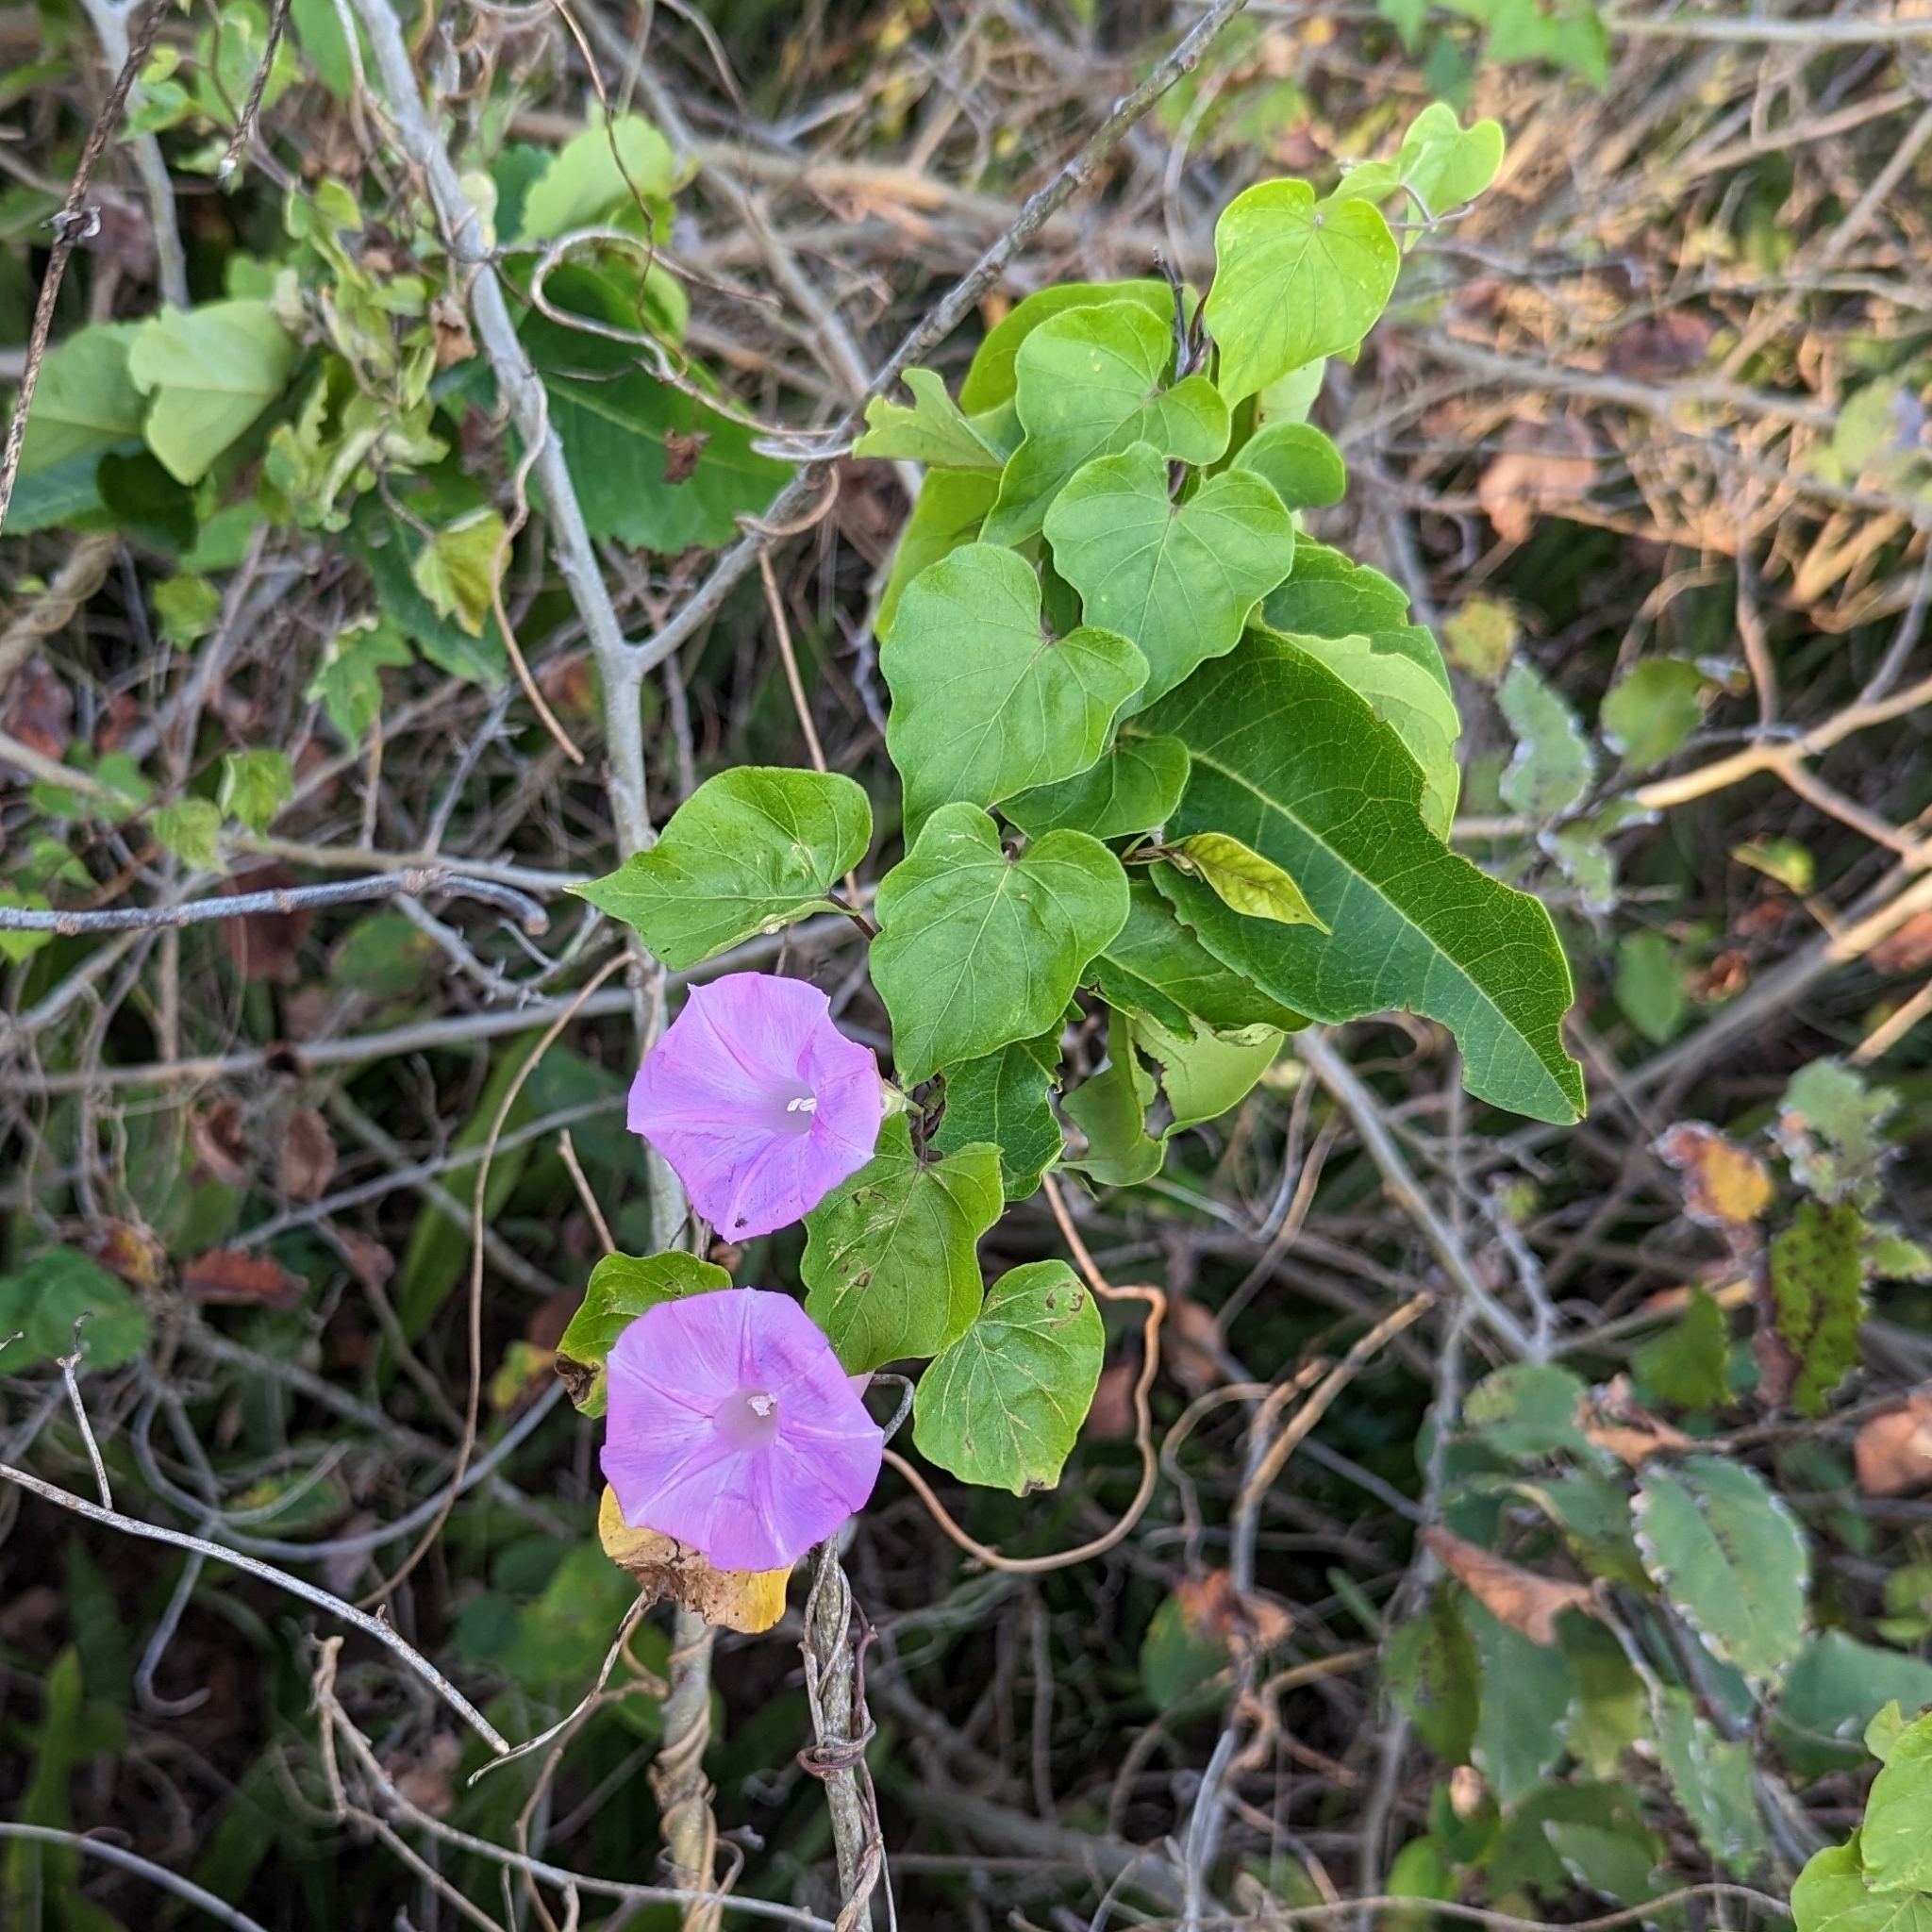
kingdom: Plantae
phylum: Tracheophyta
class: Magnoliopsida
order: Solanales
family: Convolvulaceae
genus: Ipomoea
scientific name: Ipomoea indica
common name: Blue dawnflower
